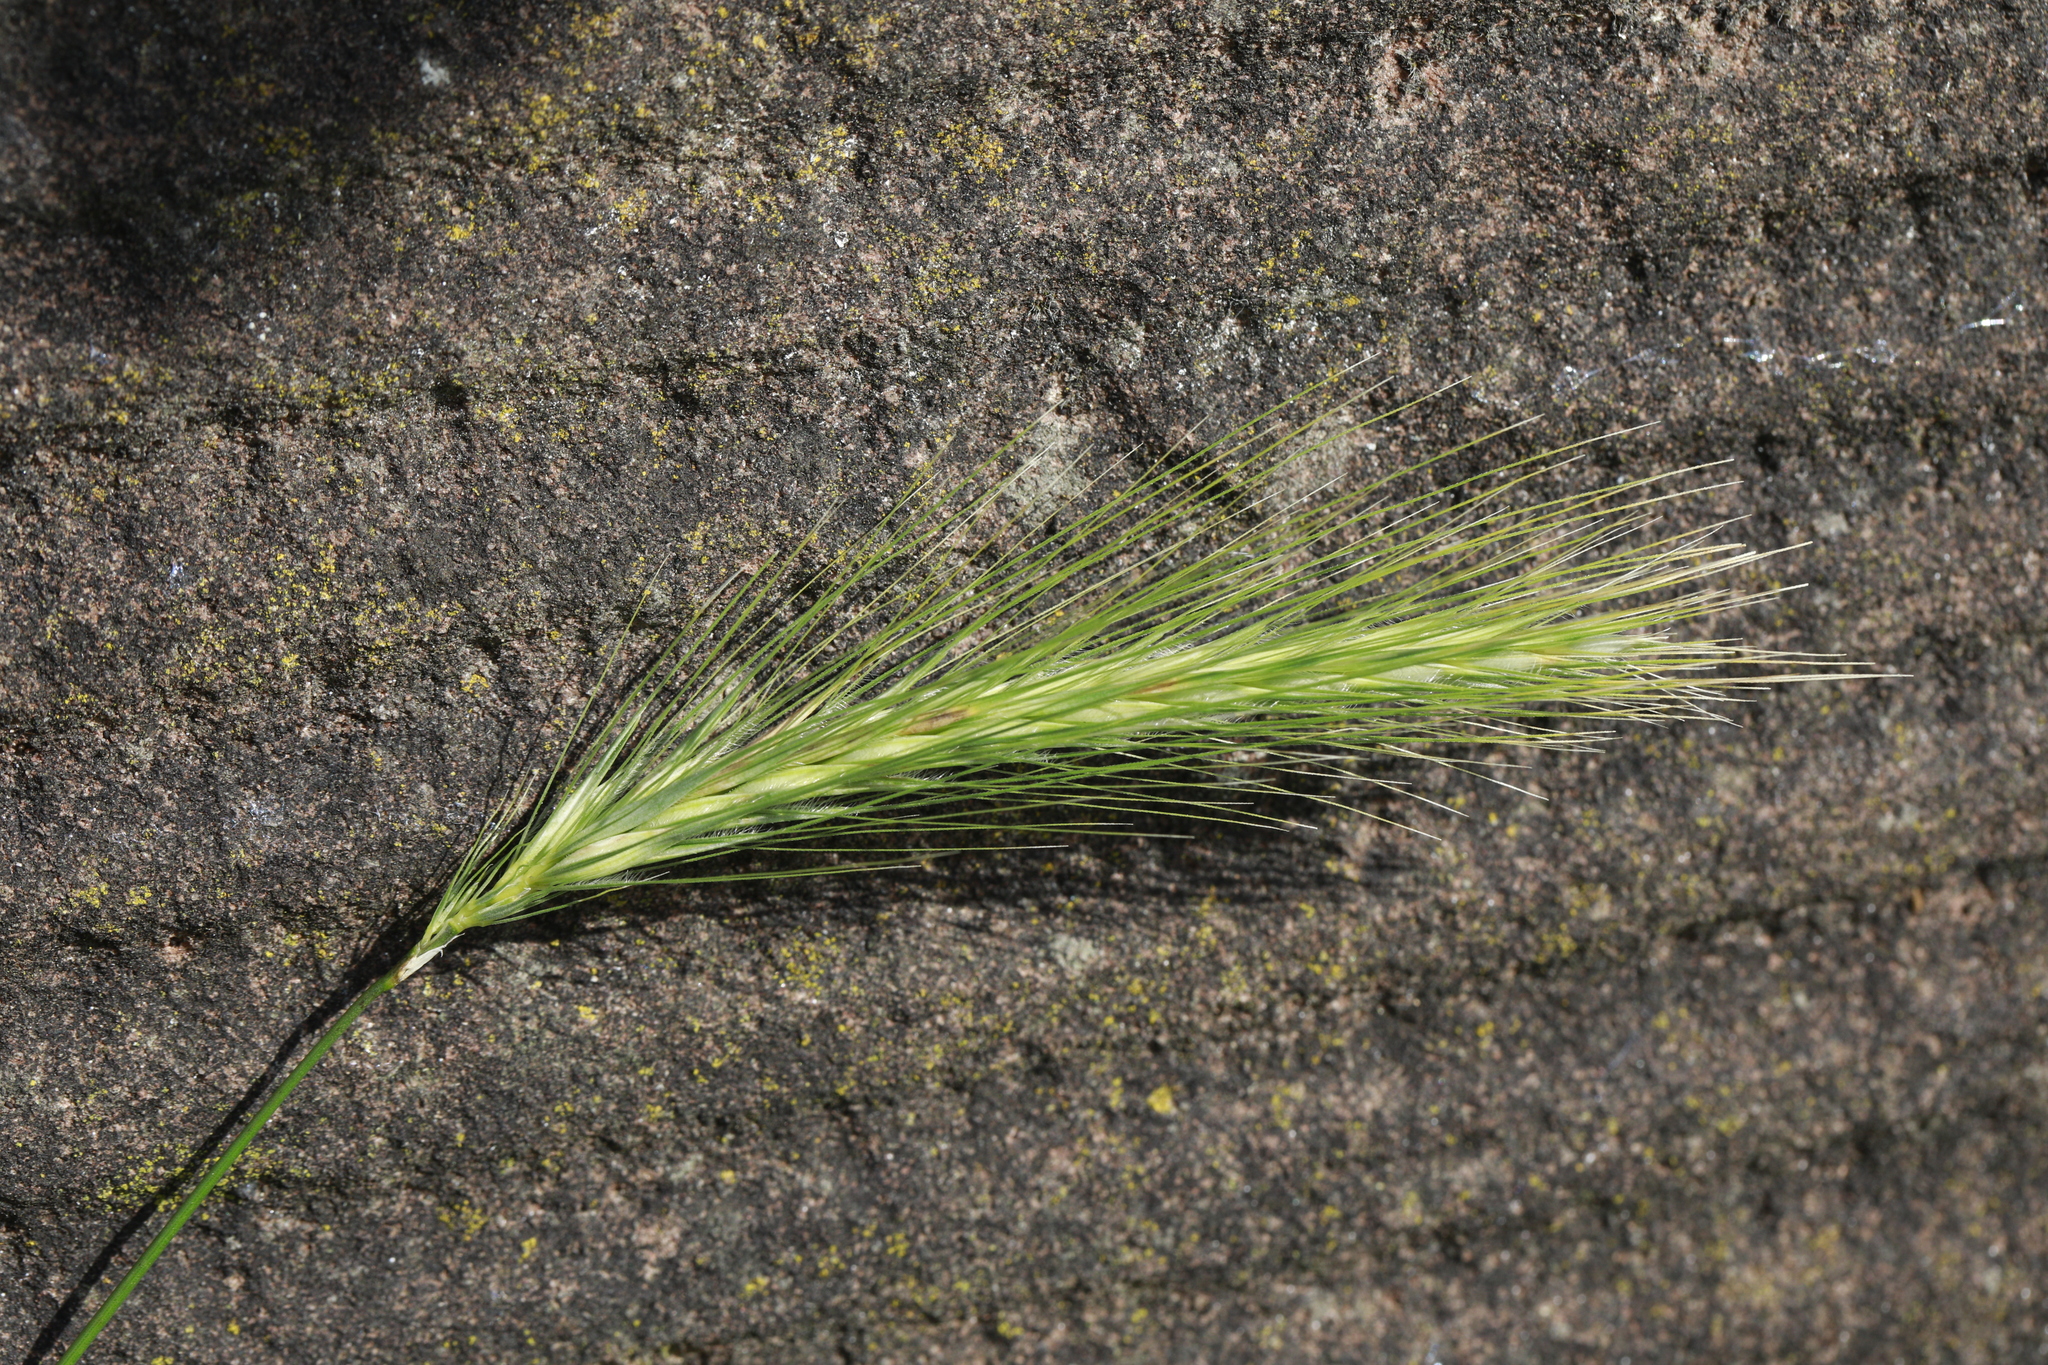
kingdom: Plantae
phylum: Tracheophyta
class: Liliopsida
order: Poales
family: Poaceae
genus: Hordeum
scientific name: Hordeum murinum
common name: Wall barley
